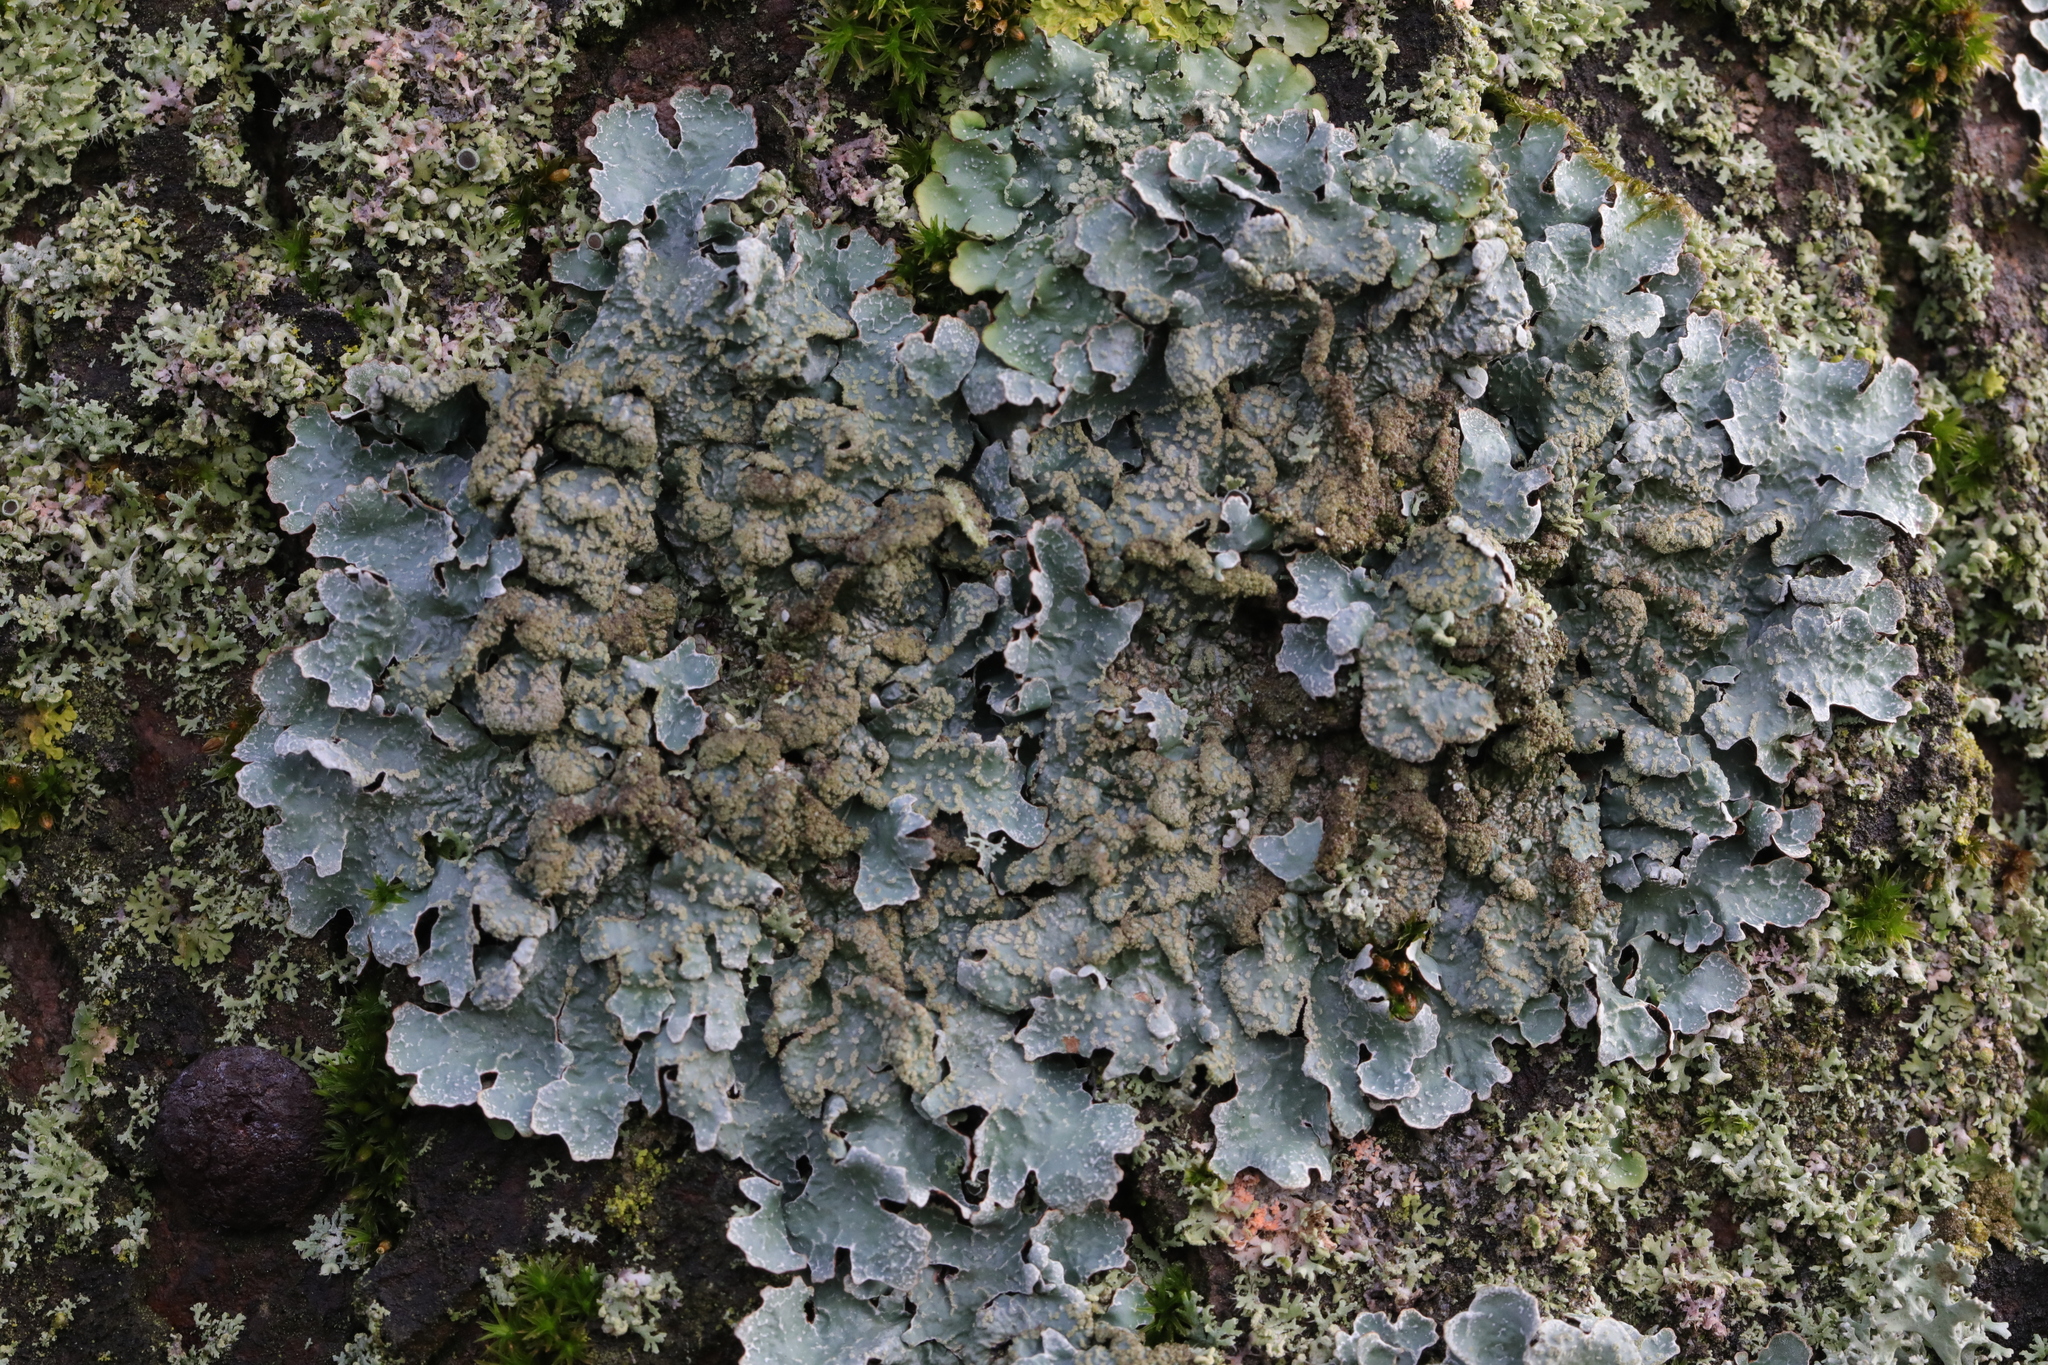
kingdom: Fungi
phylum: Ascomycota
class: Lecanoromycetes
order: Lecanorales
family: Parmeliaceae
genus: Parmelia
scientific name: Parmelia sulcata
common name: Netted shield lichen
